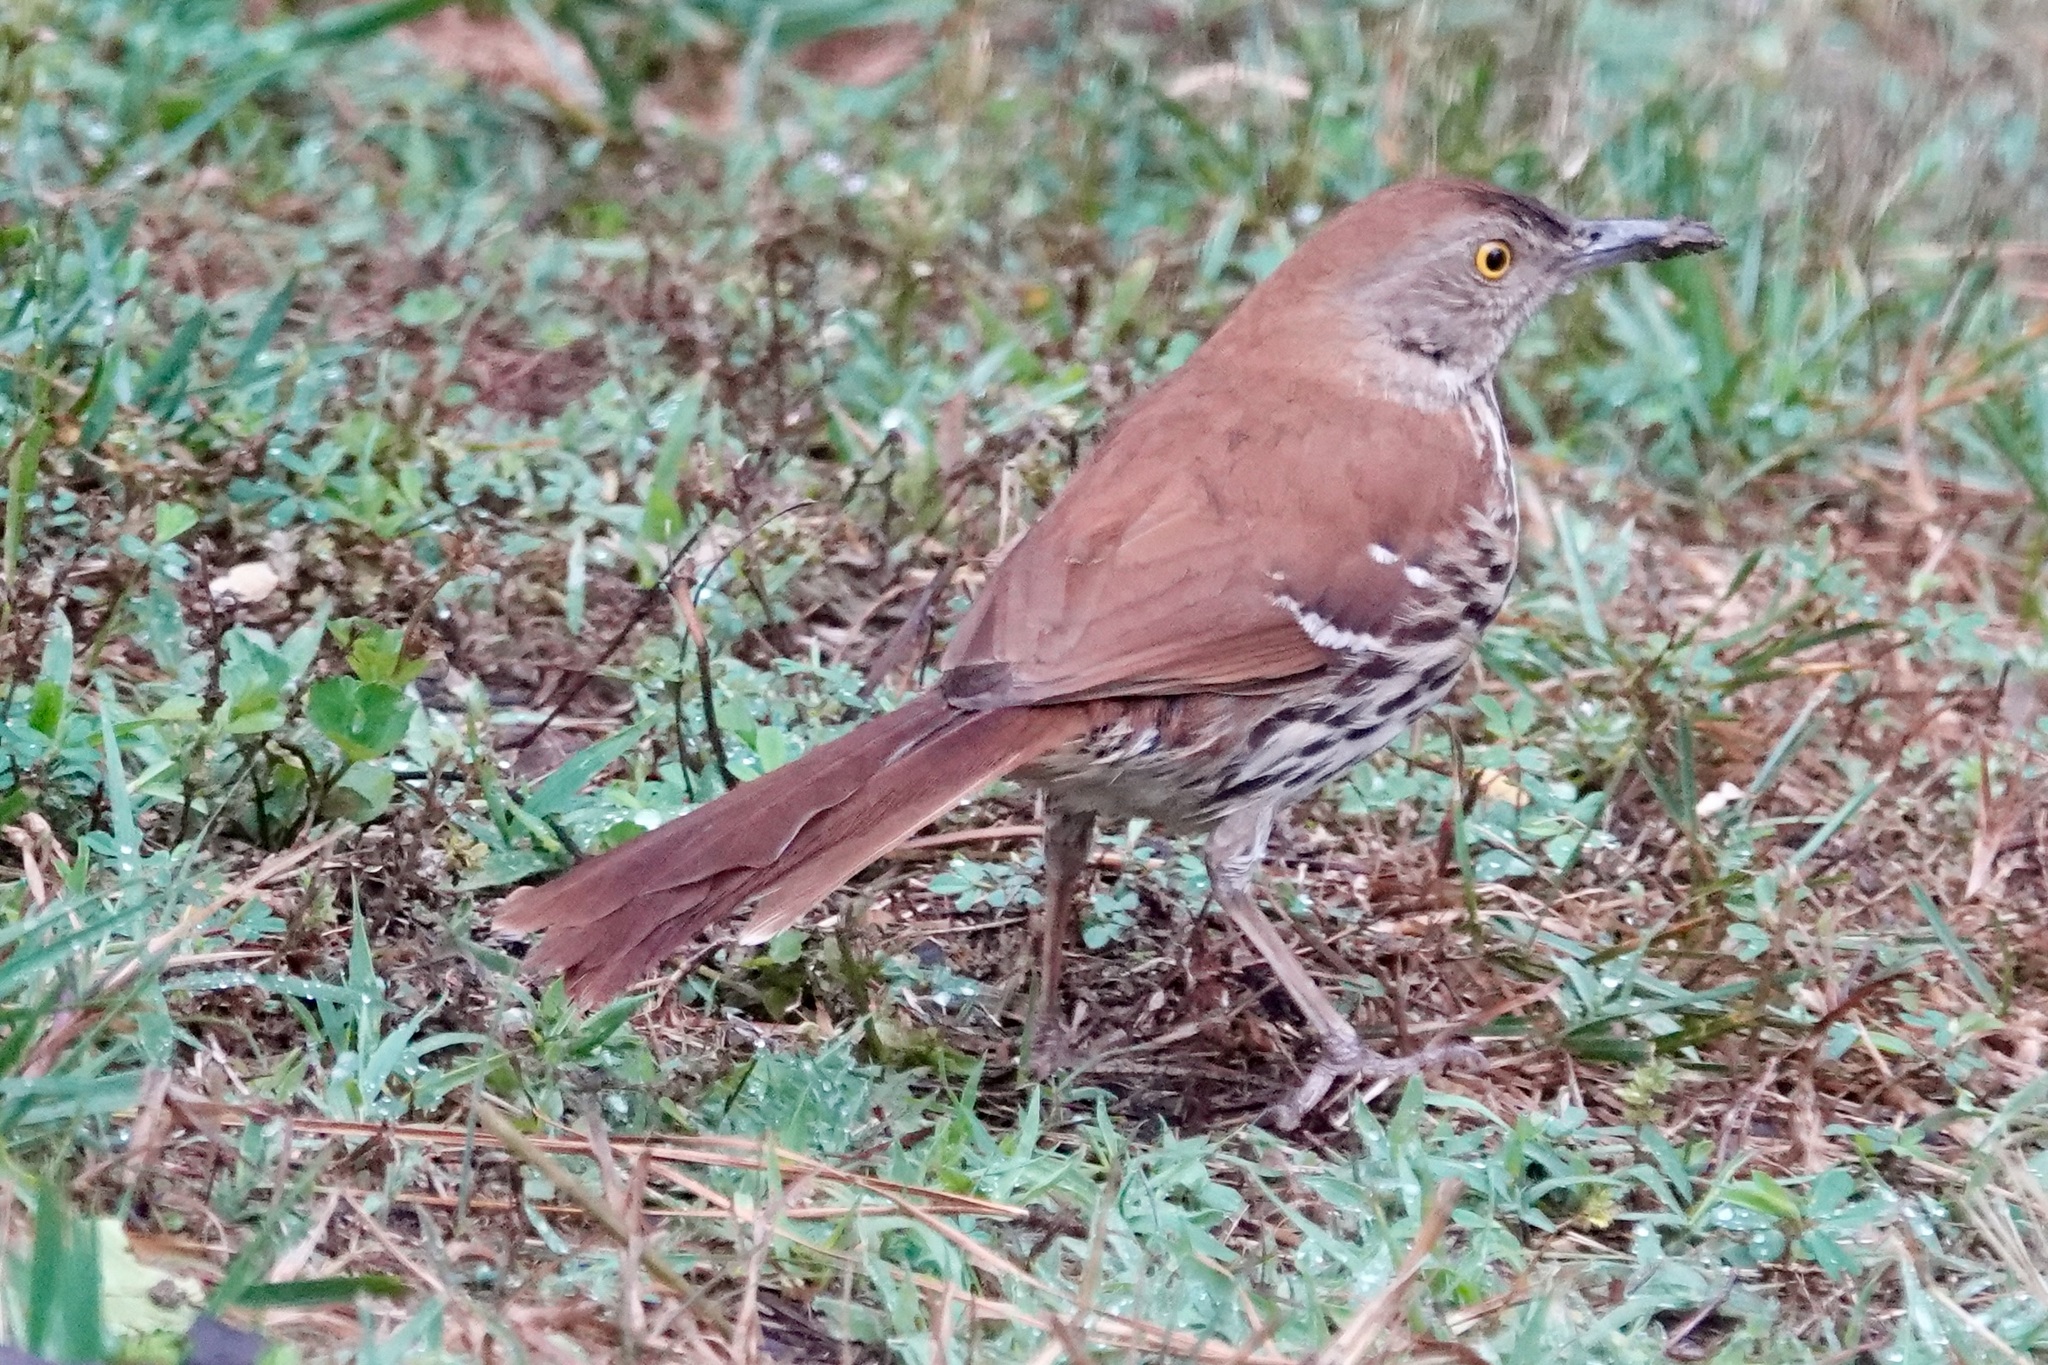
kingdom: Animalia
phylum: Chordata
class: Aves
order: Passeriformes
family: Mimidae
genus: Toxostoma
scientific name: Toxostoma rufum
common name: Brown thrasher
